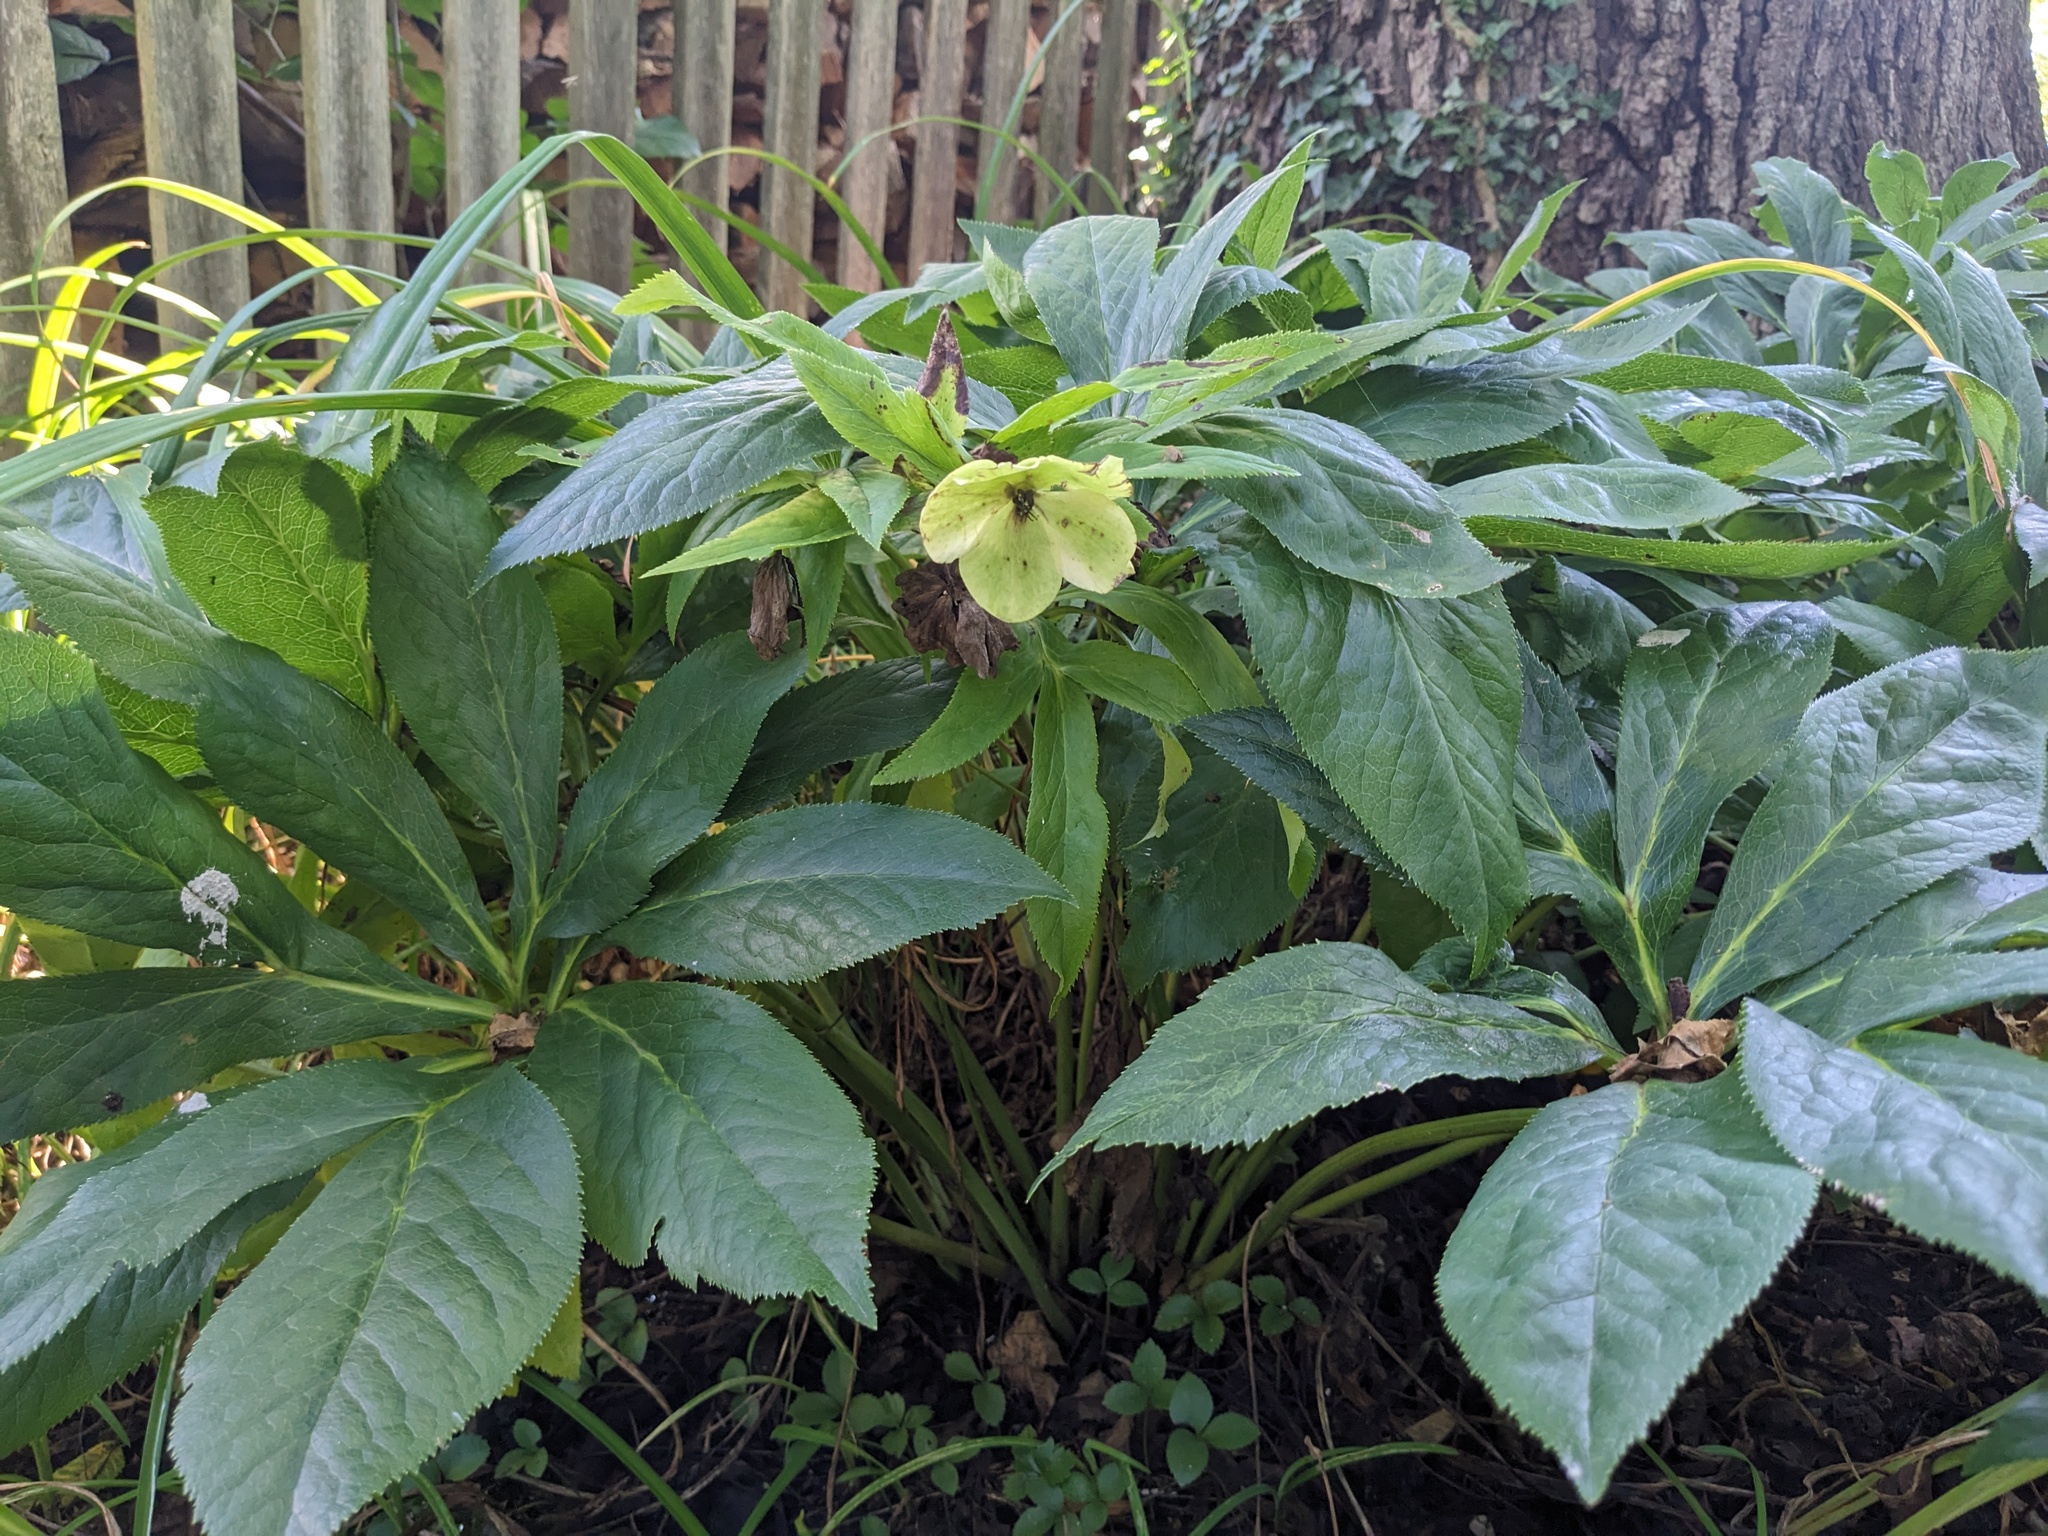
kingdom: Plantae
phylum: Tracheophyta
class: Magnoliopsida
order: Ranunculales
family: Ranunculaceae
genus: Helleborus
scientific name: Helleborus orientalis
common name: Lenten-rose
